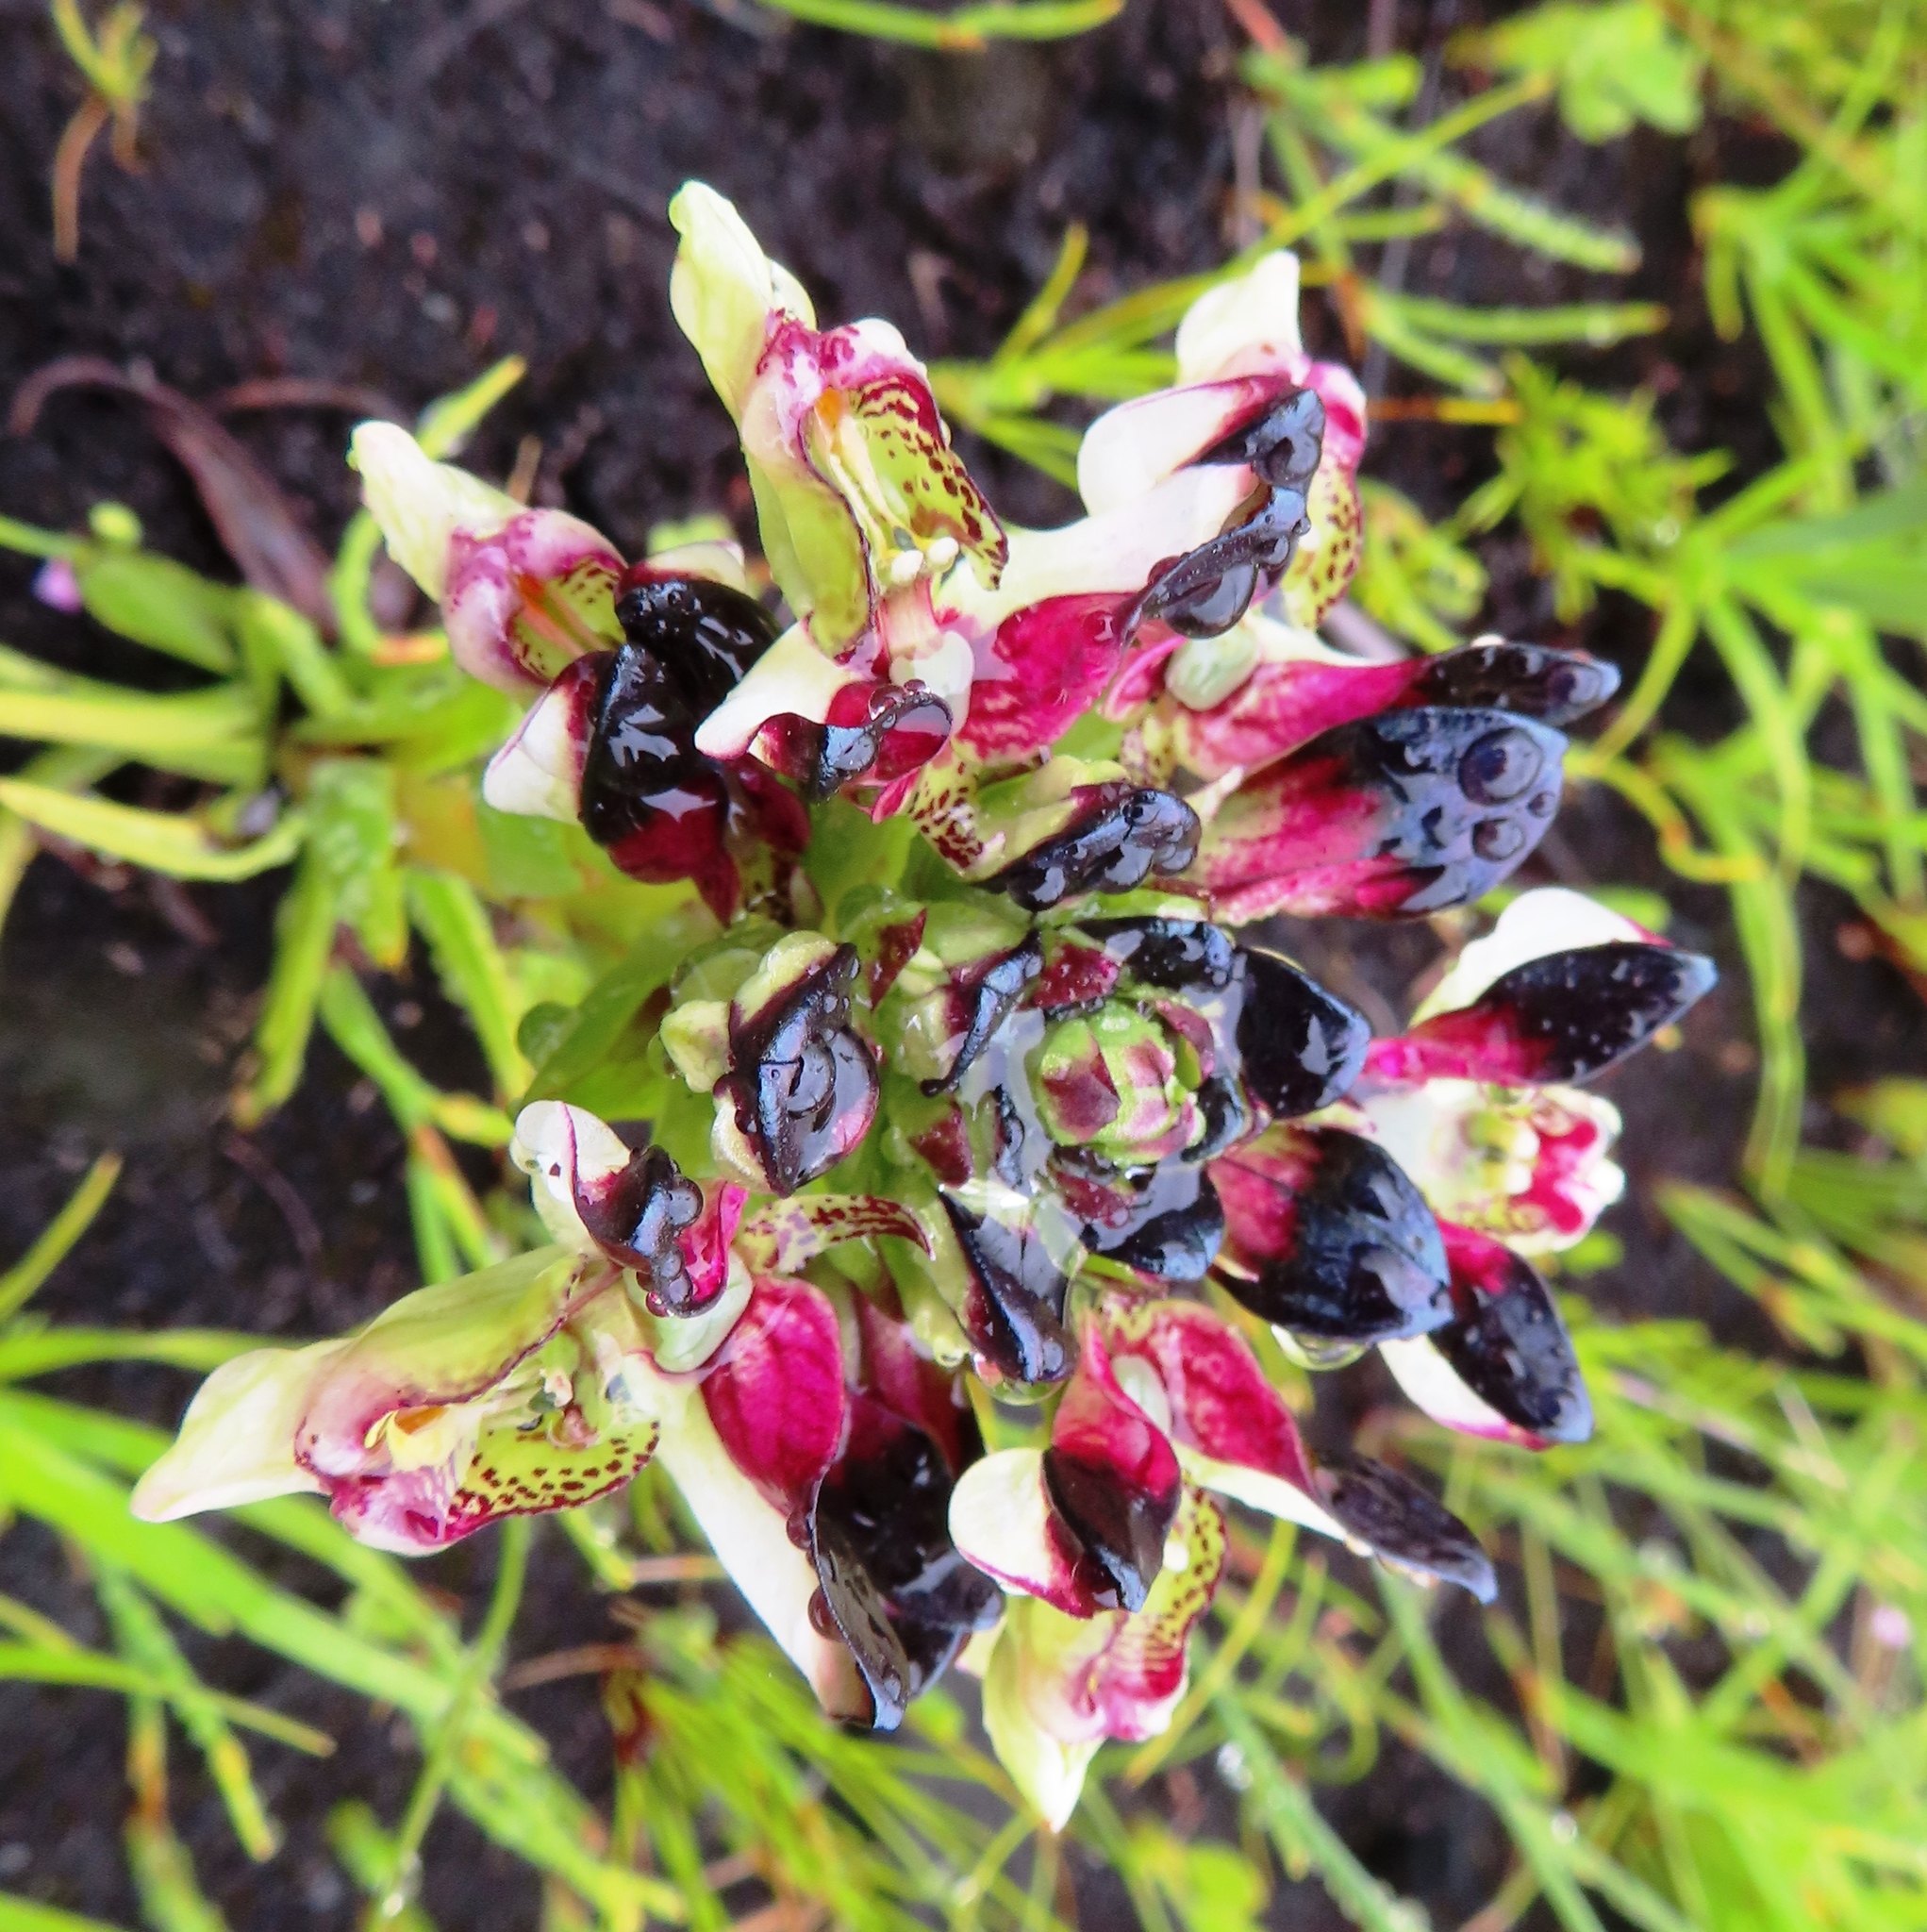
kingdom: Plantae
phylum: Tracheophyta
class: Liliopsida
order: Asparagales
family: Orchidaceae
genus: Disa
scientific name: Disa atricapilla
